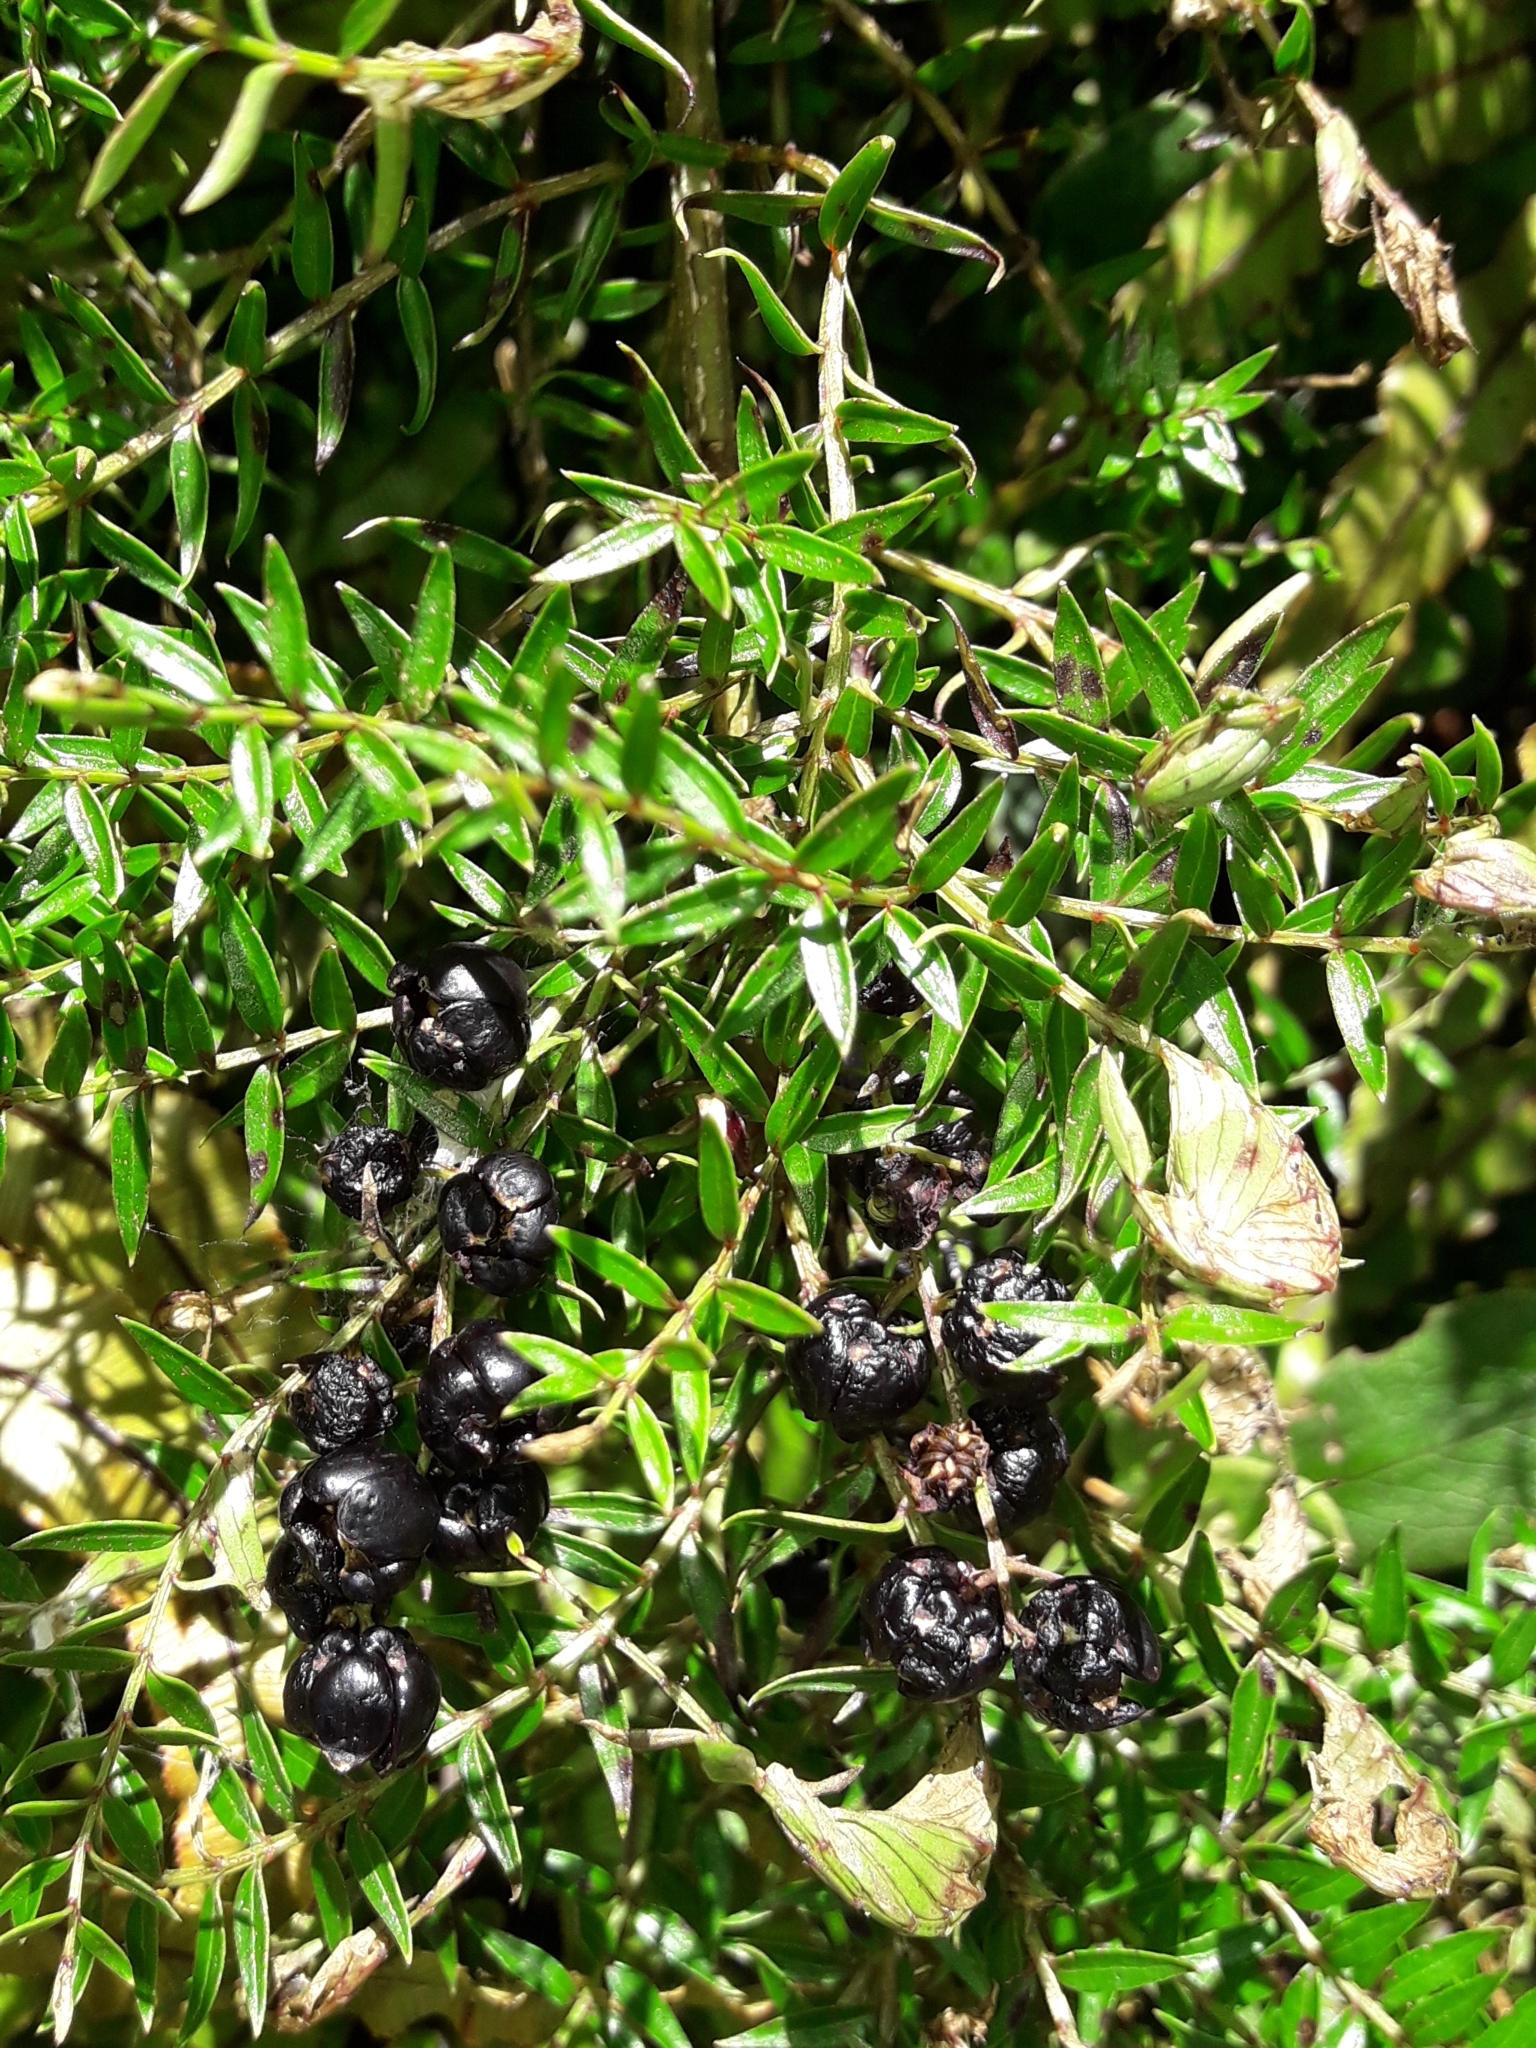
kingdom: Plantae
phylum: Tracheophyta
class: Magnoliopsida
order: Cucurbitales
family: Coriariaceae
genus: Coriaria
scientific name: Coriaria plumosa
